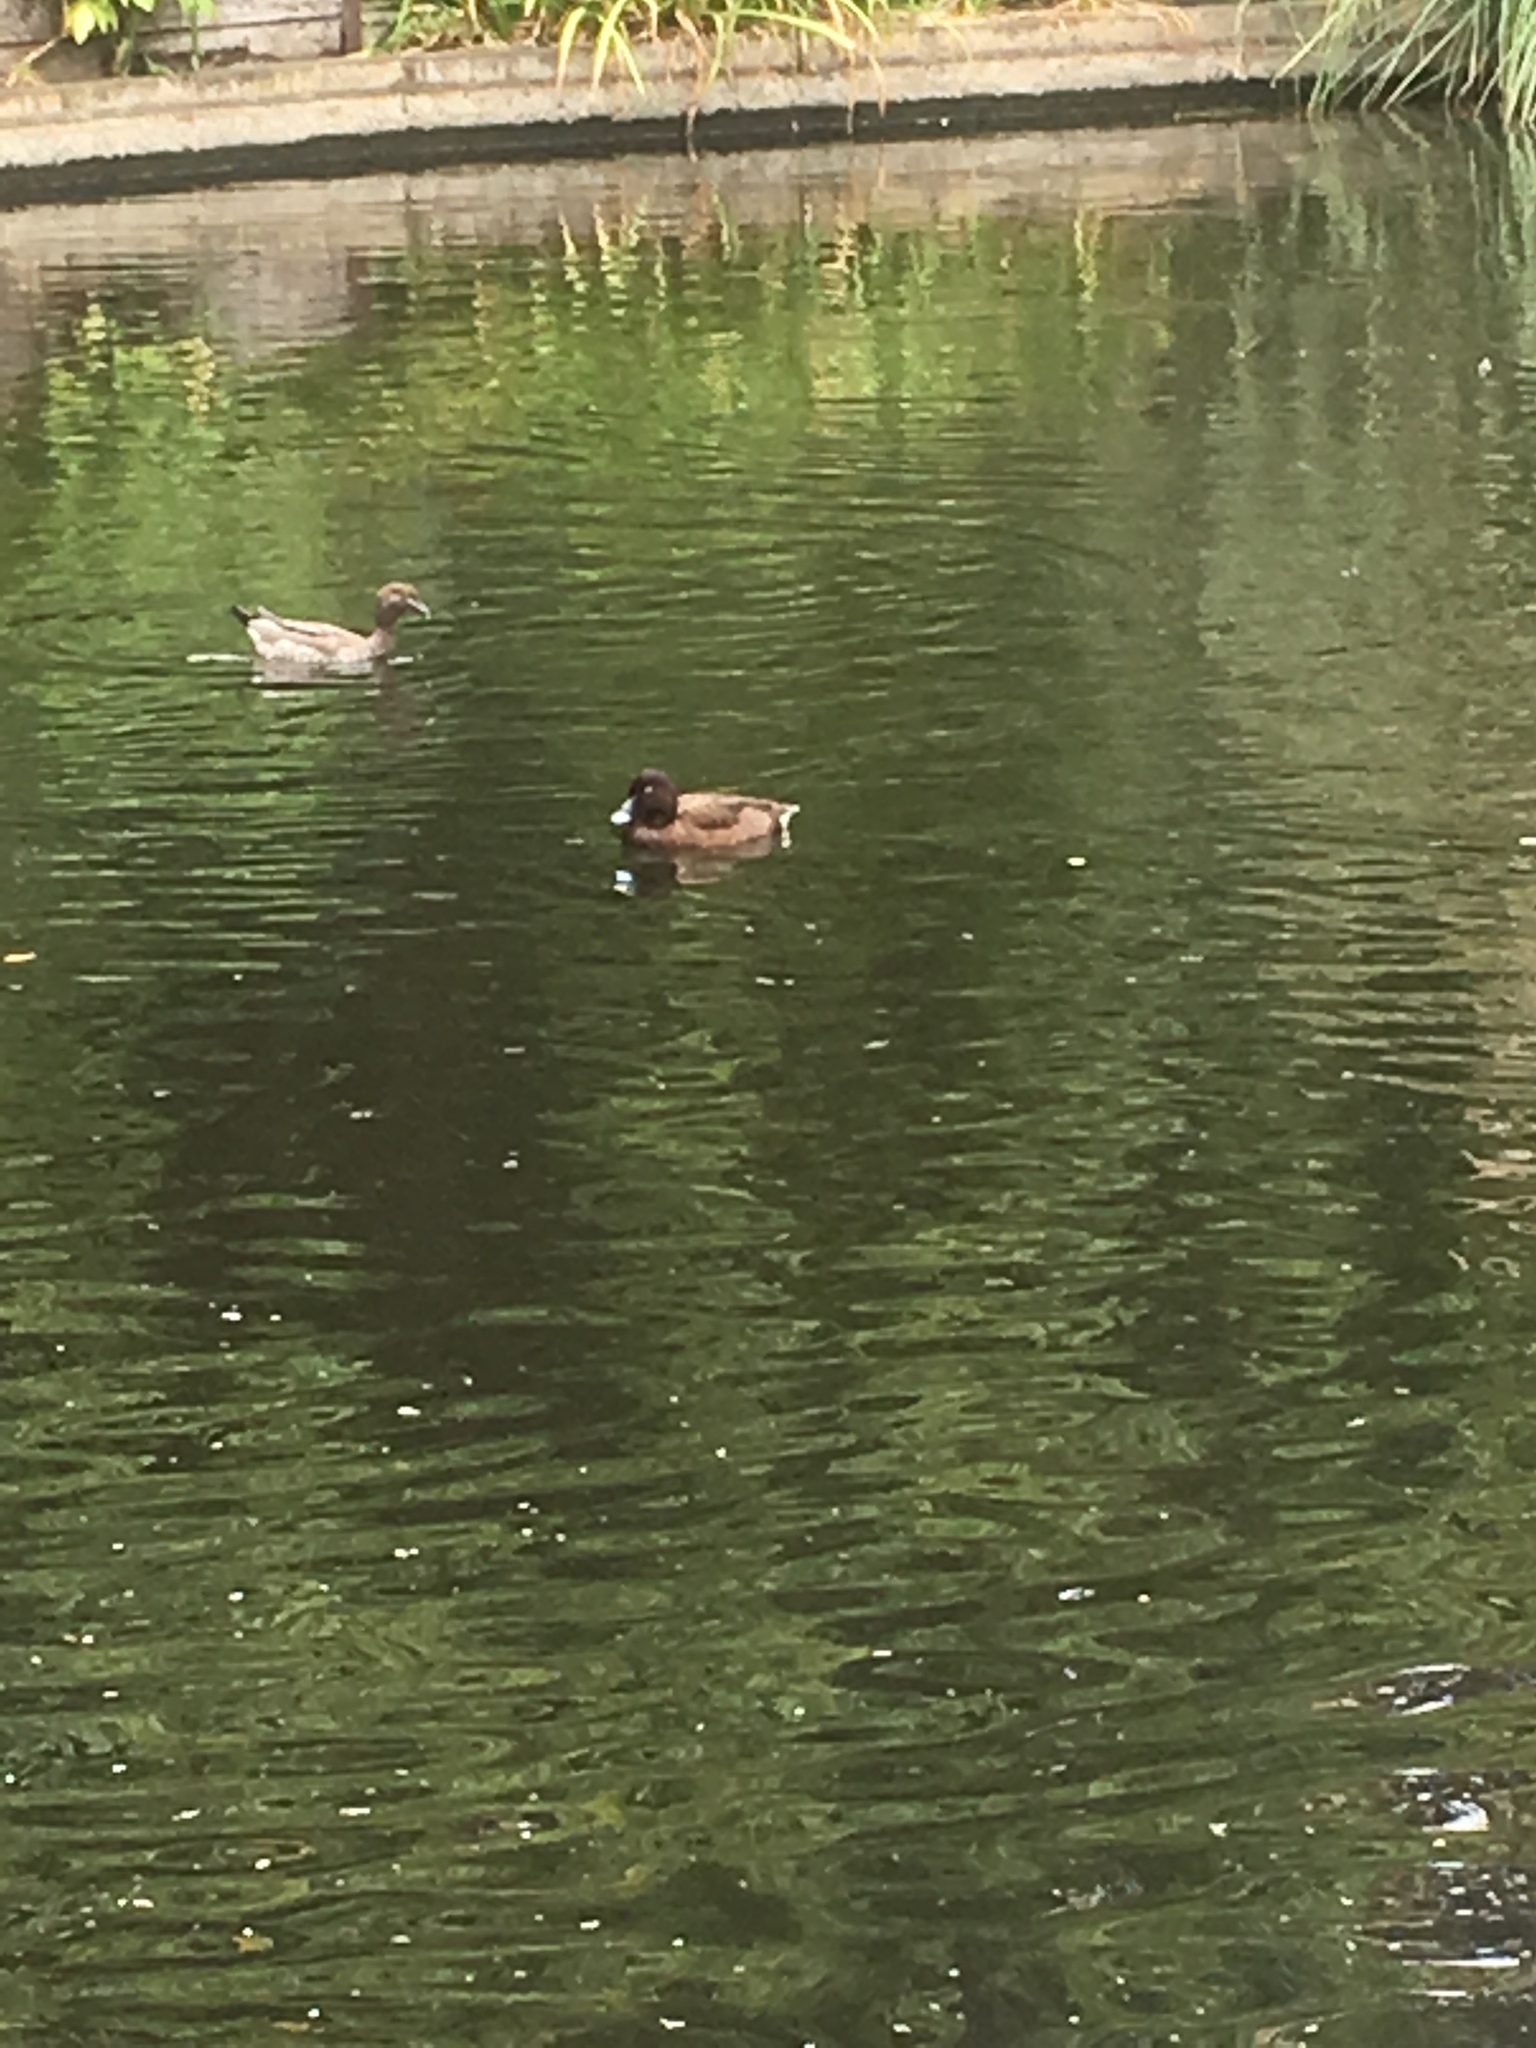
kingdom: Animalia
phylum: Chordata
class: Aves
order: Anseriformes
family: Anatidae
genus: Aythya
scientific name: Aythya australis
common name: Hardhead
